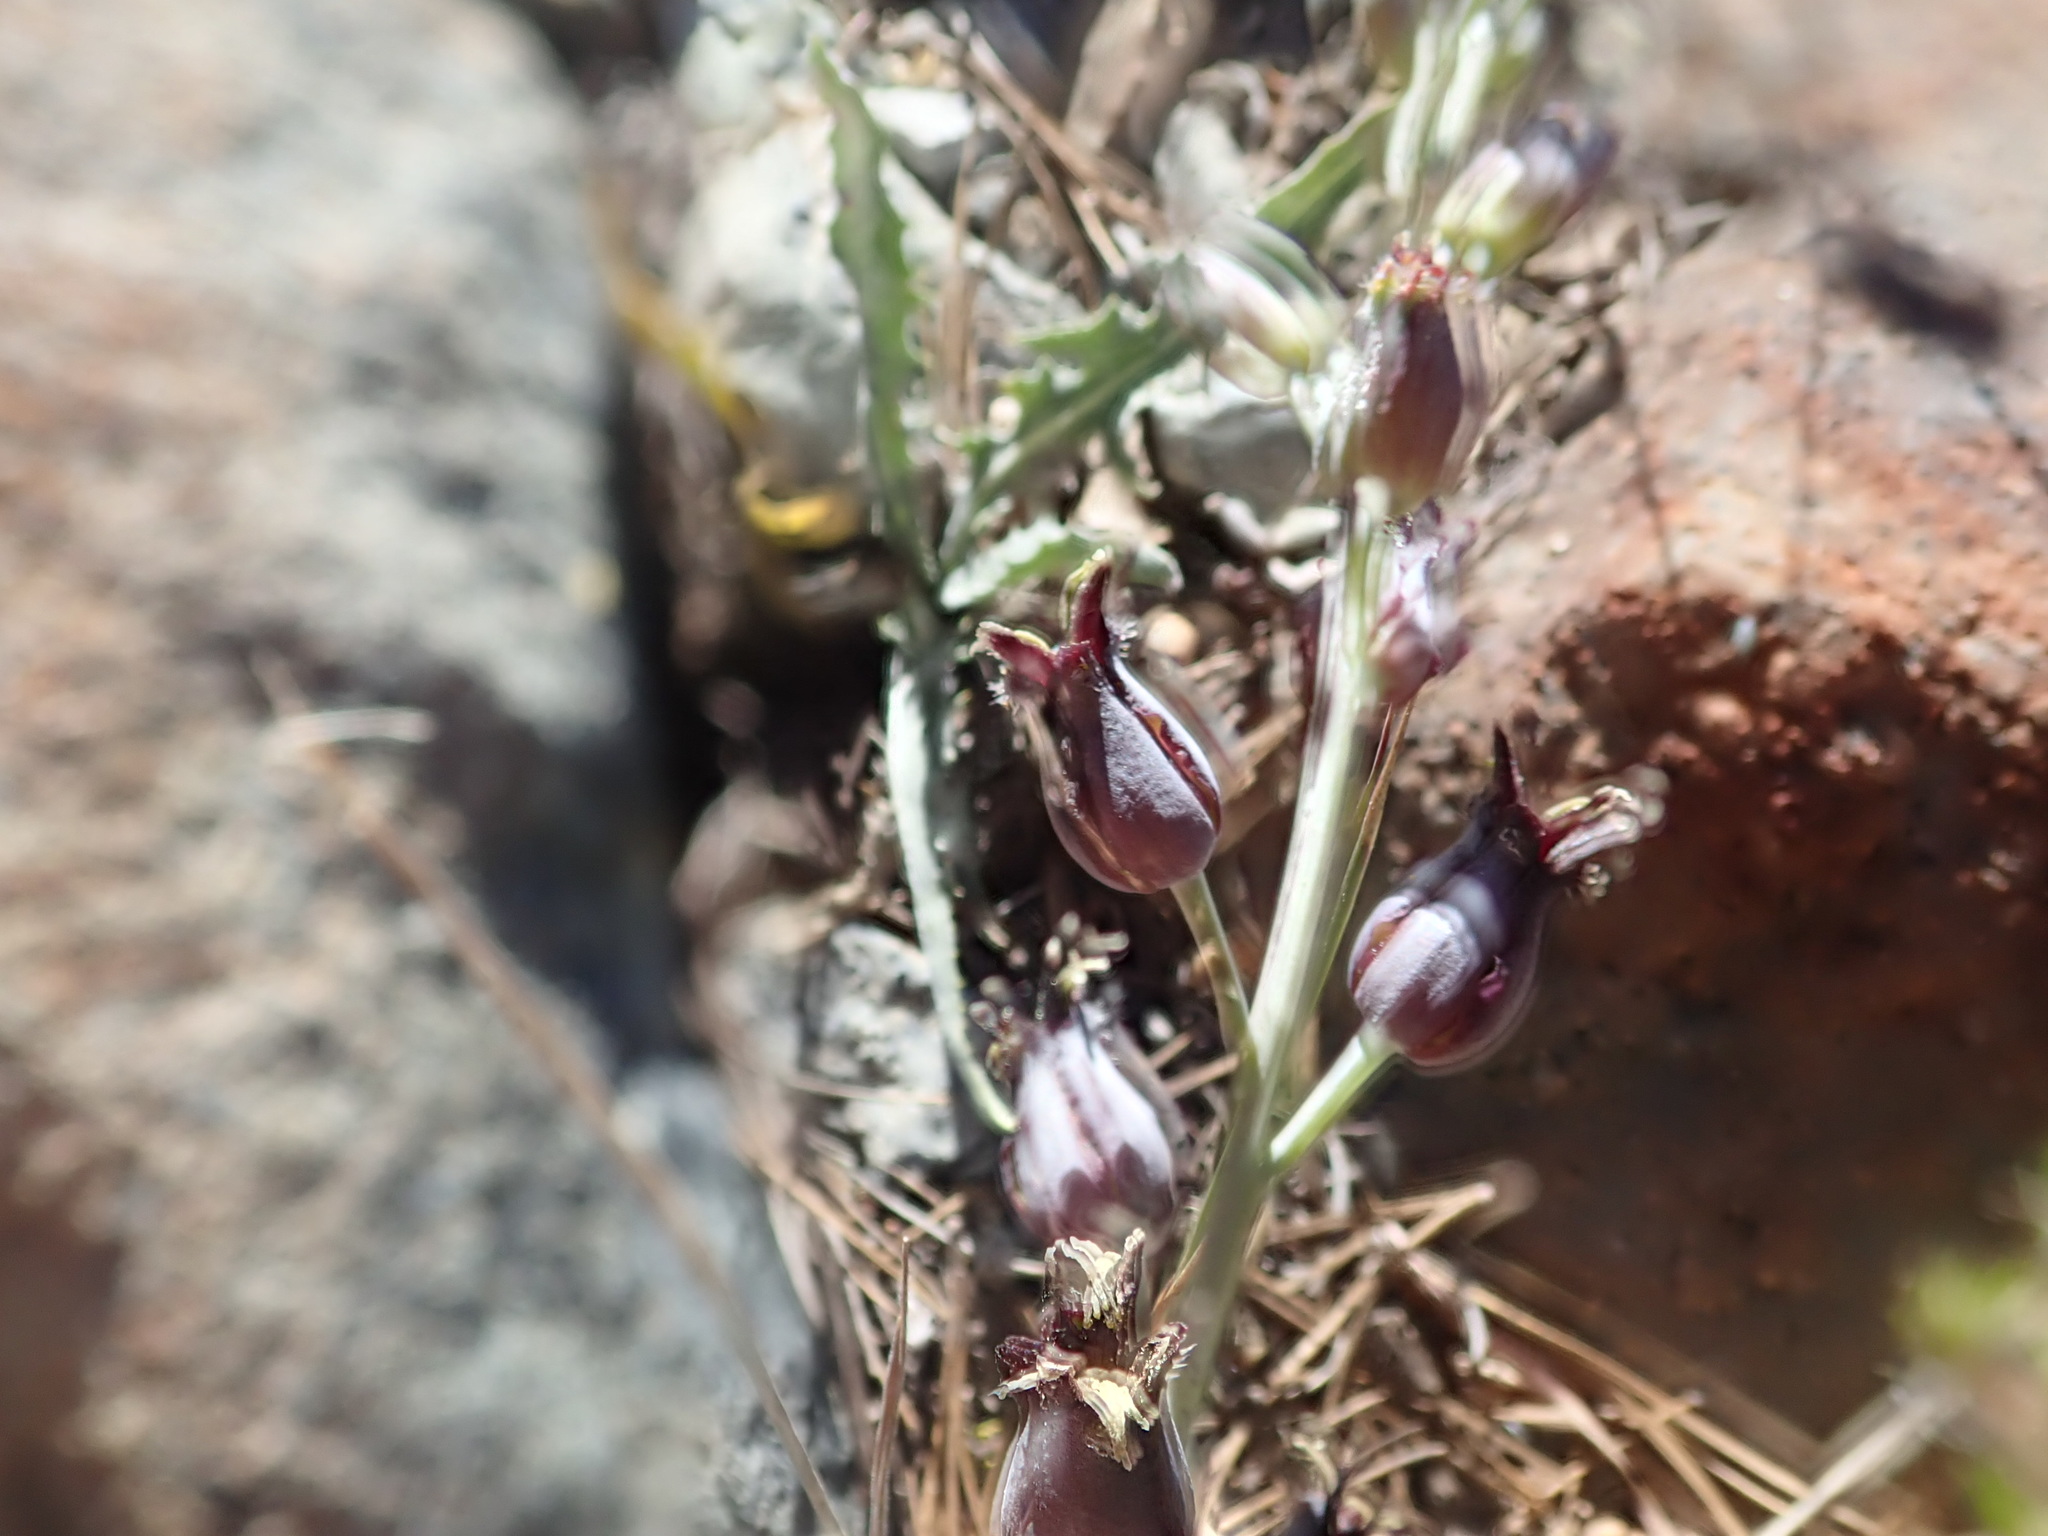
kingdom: Plantae
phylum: Tracheophyta
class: Magnoliopsida
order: Brassicales
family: Brassicaceae
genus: Streptanthus
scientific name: Streptanthus barbatus
